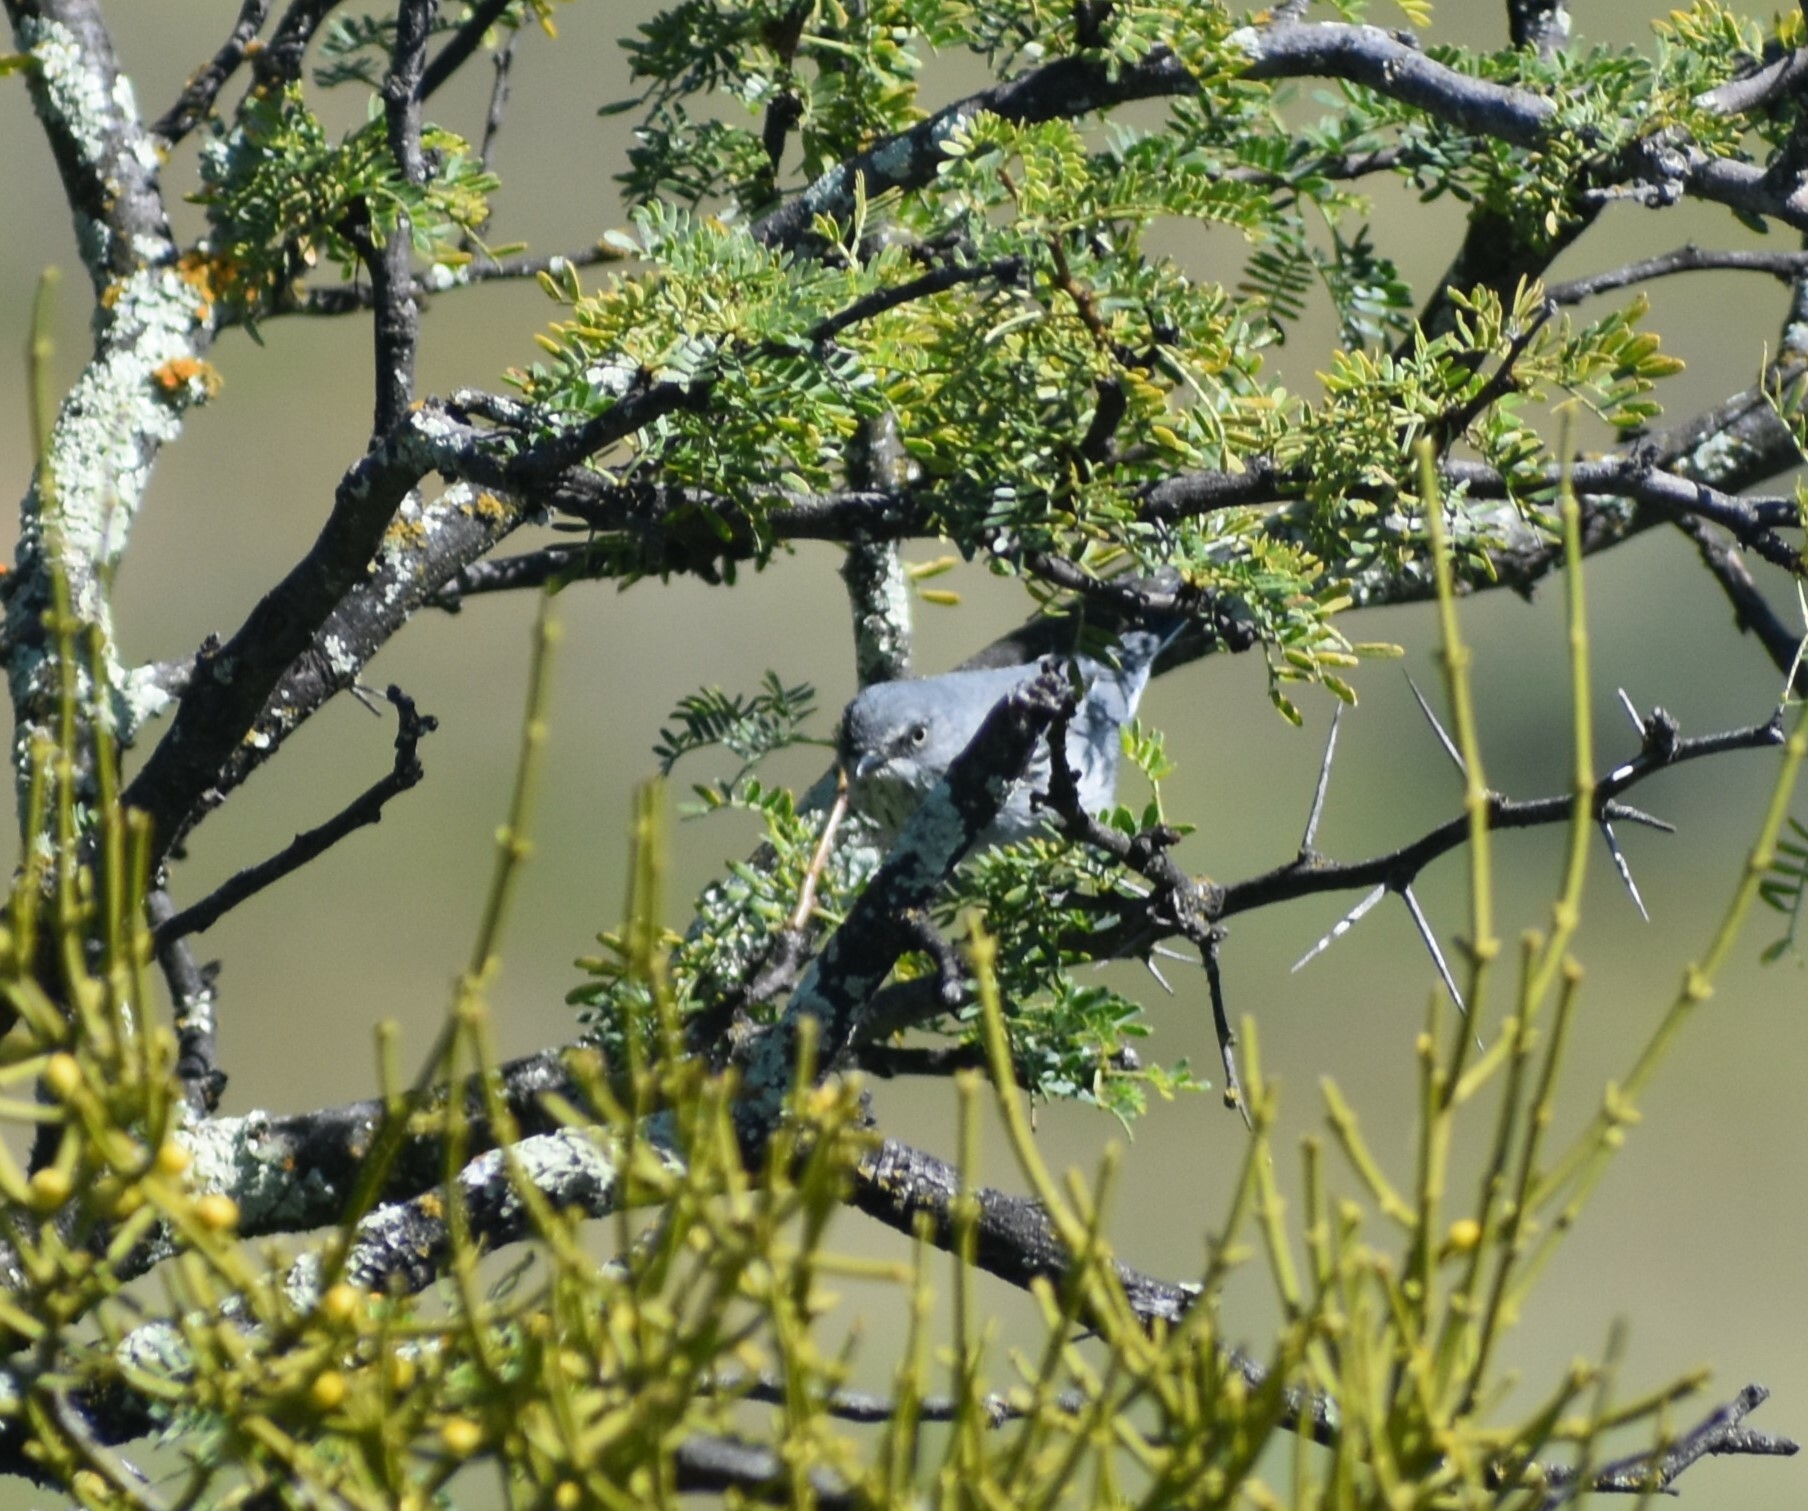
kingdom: Animalia
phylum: Chordata
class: Aves
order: Passeriformes
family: Sylviidae
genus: Sylvia
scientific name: Sylvia layardi
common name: Layard's warbler
